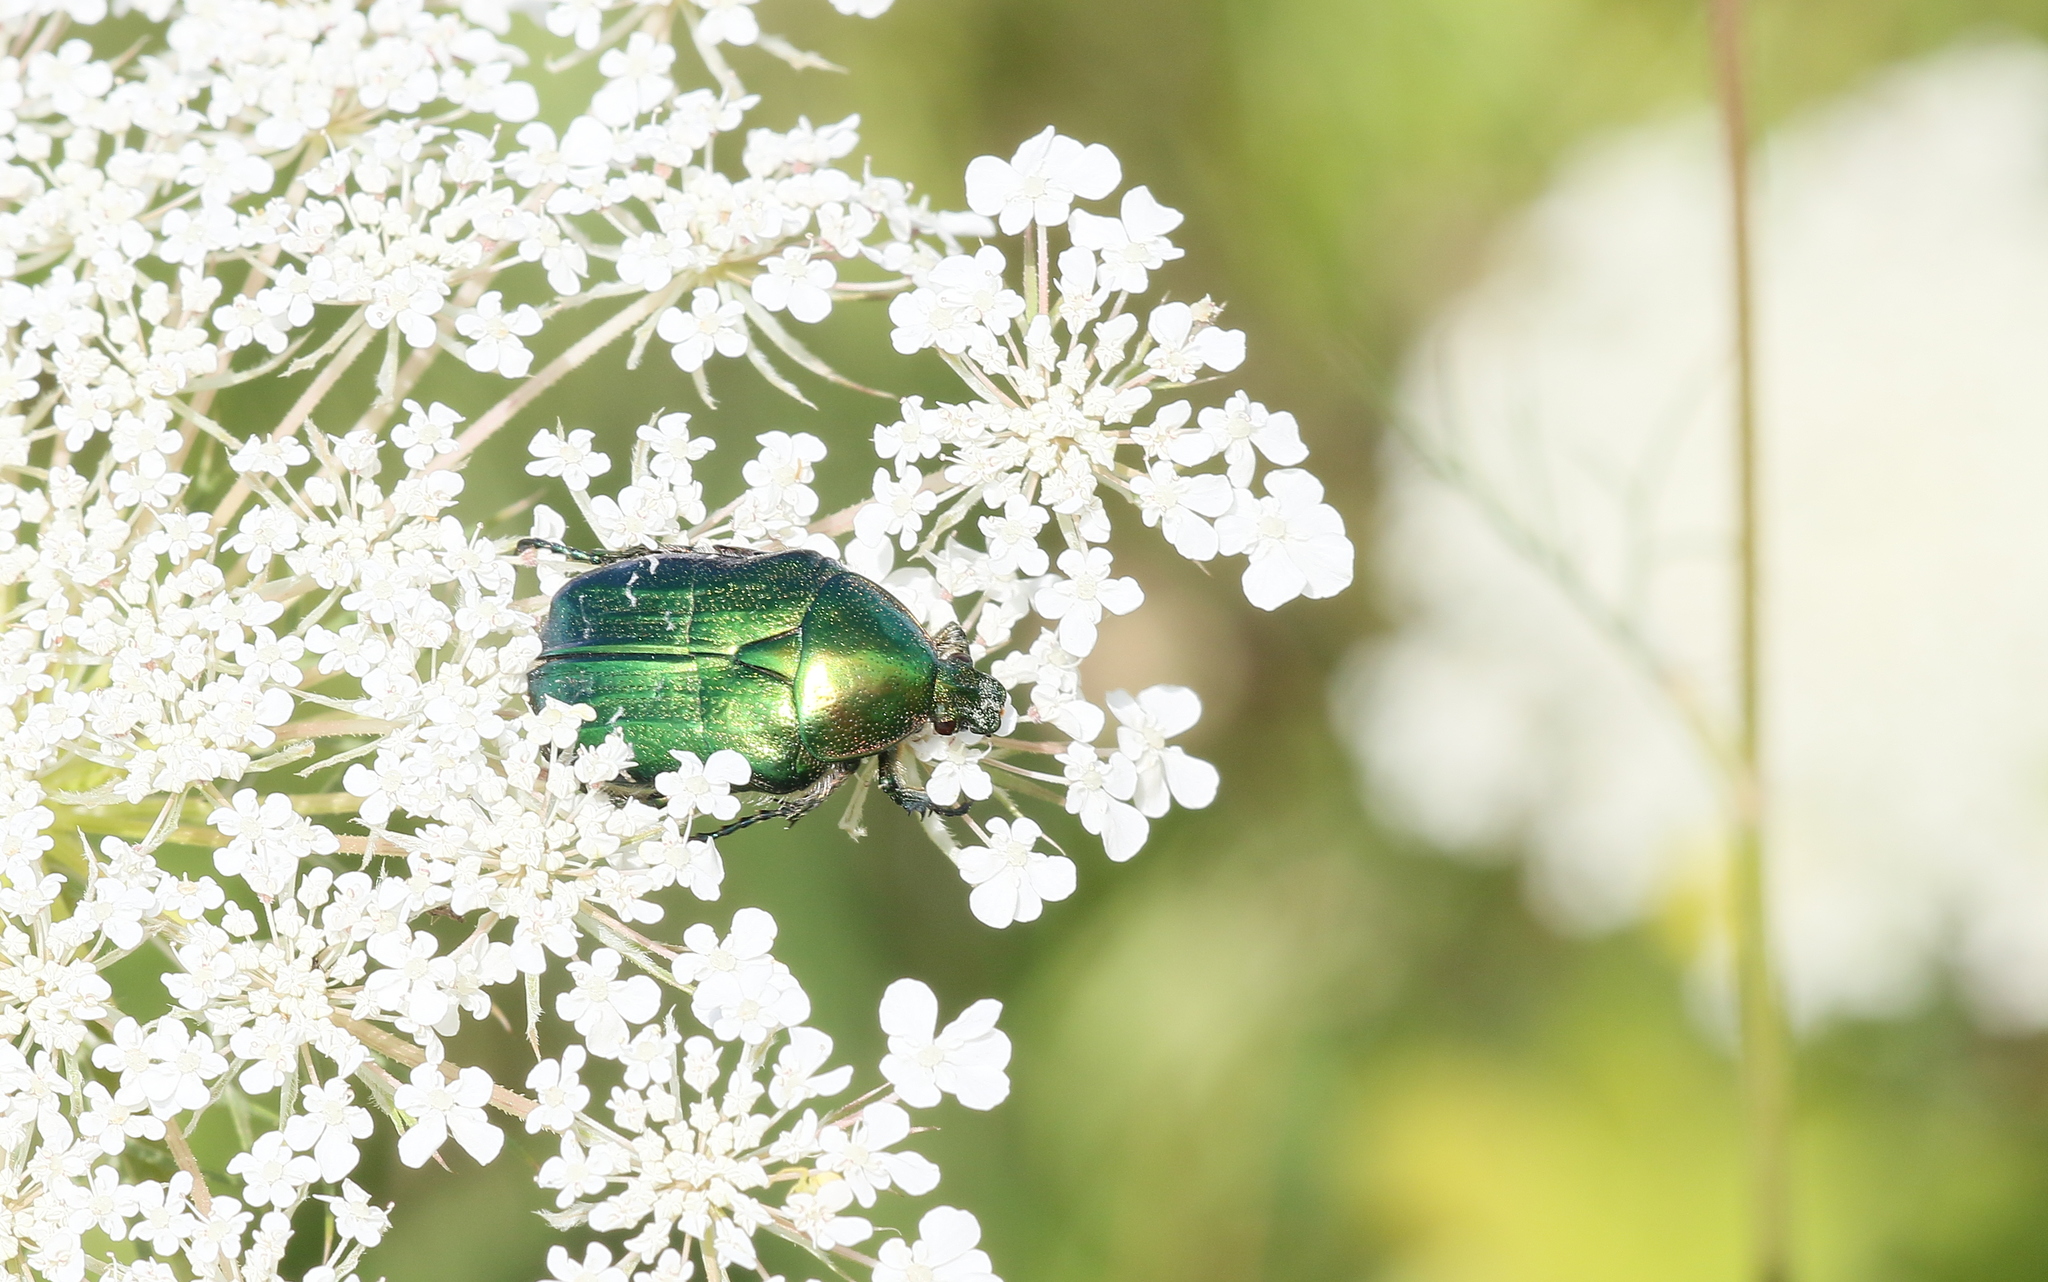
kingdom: Animalia
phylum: Arthropoda
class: Insecta
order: Coleoptera
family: Scarabaeidae
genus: Cetonia
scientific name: Cetonia aurata
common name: Rose chafer
